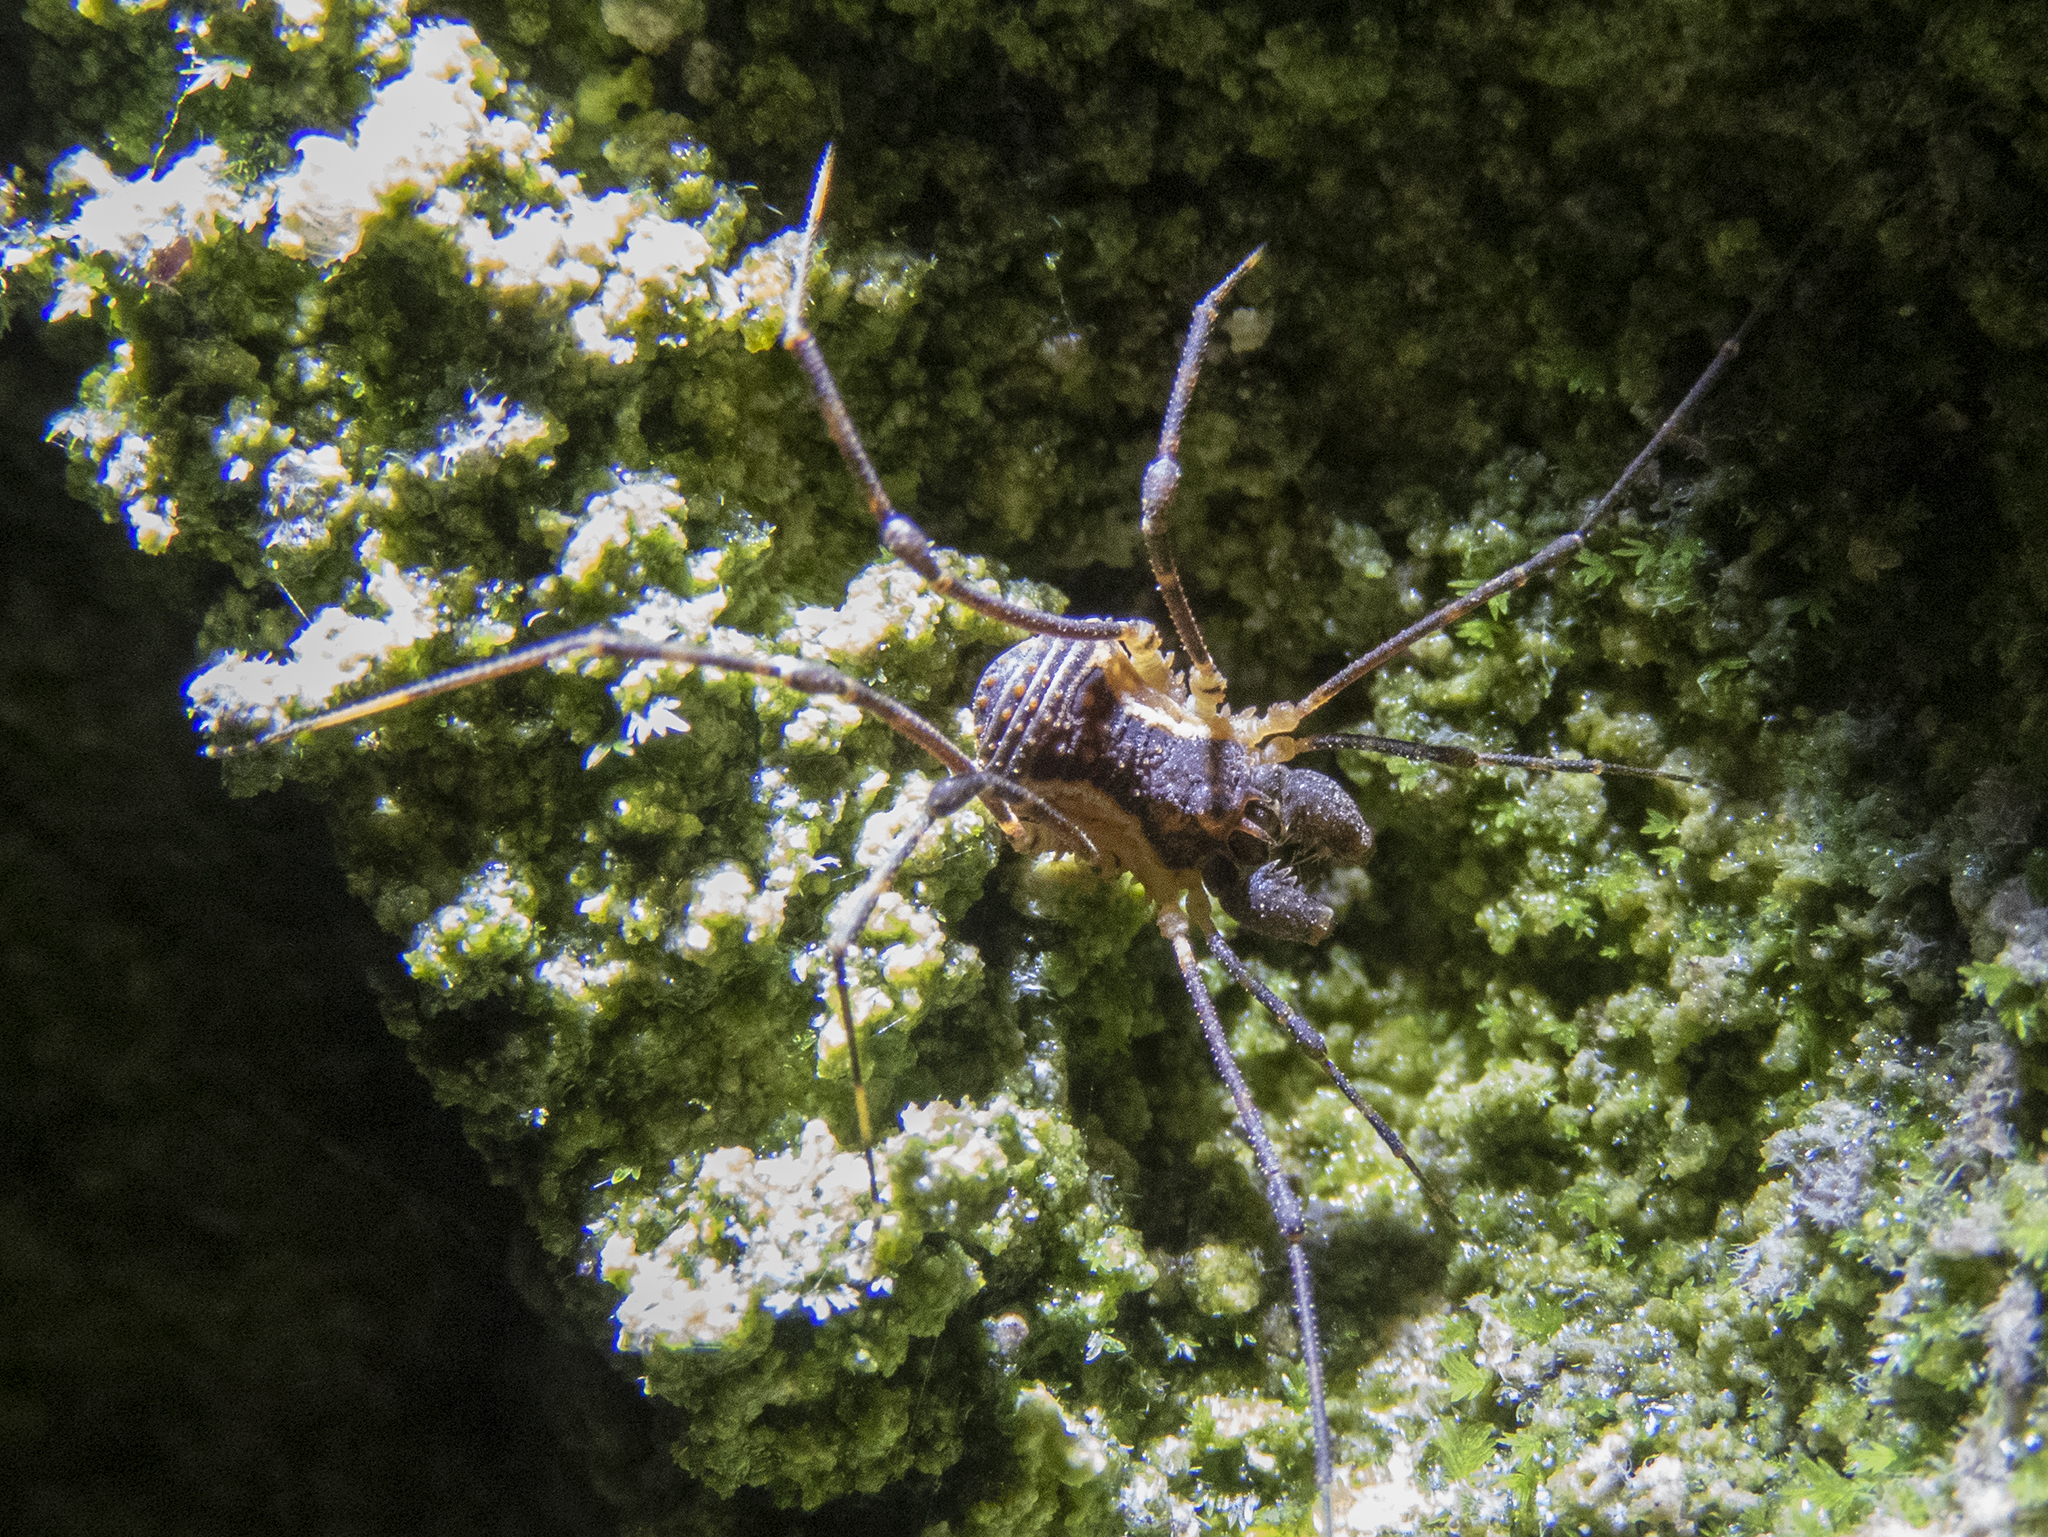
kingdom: Animalia
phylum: Arthropoda
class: Arachnida
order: Opiliones
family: Triaenonychidae
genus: Algidia
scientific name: Algidia interrupta
